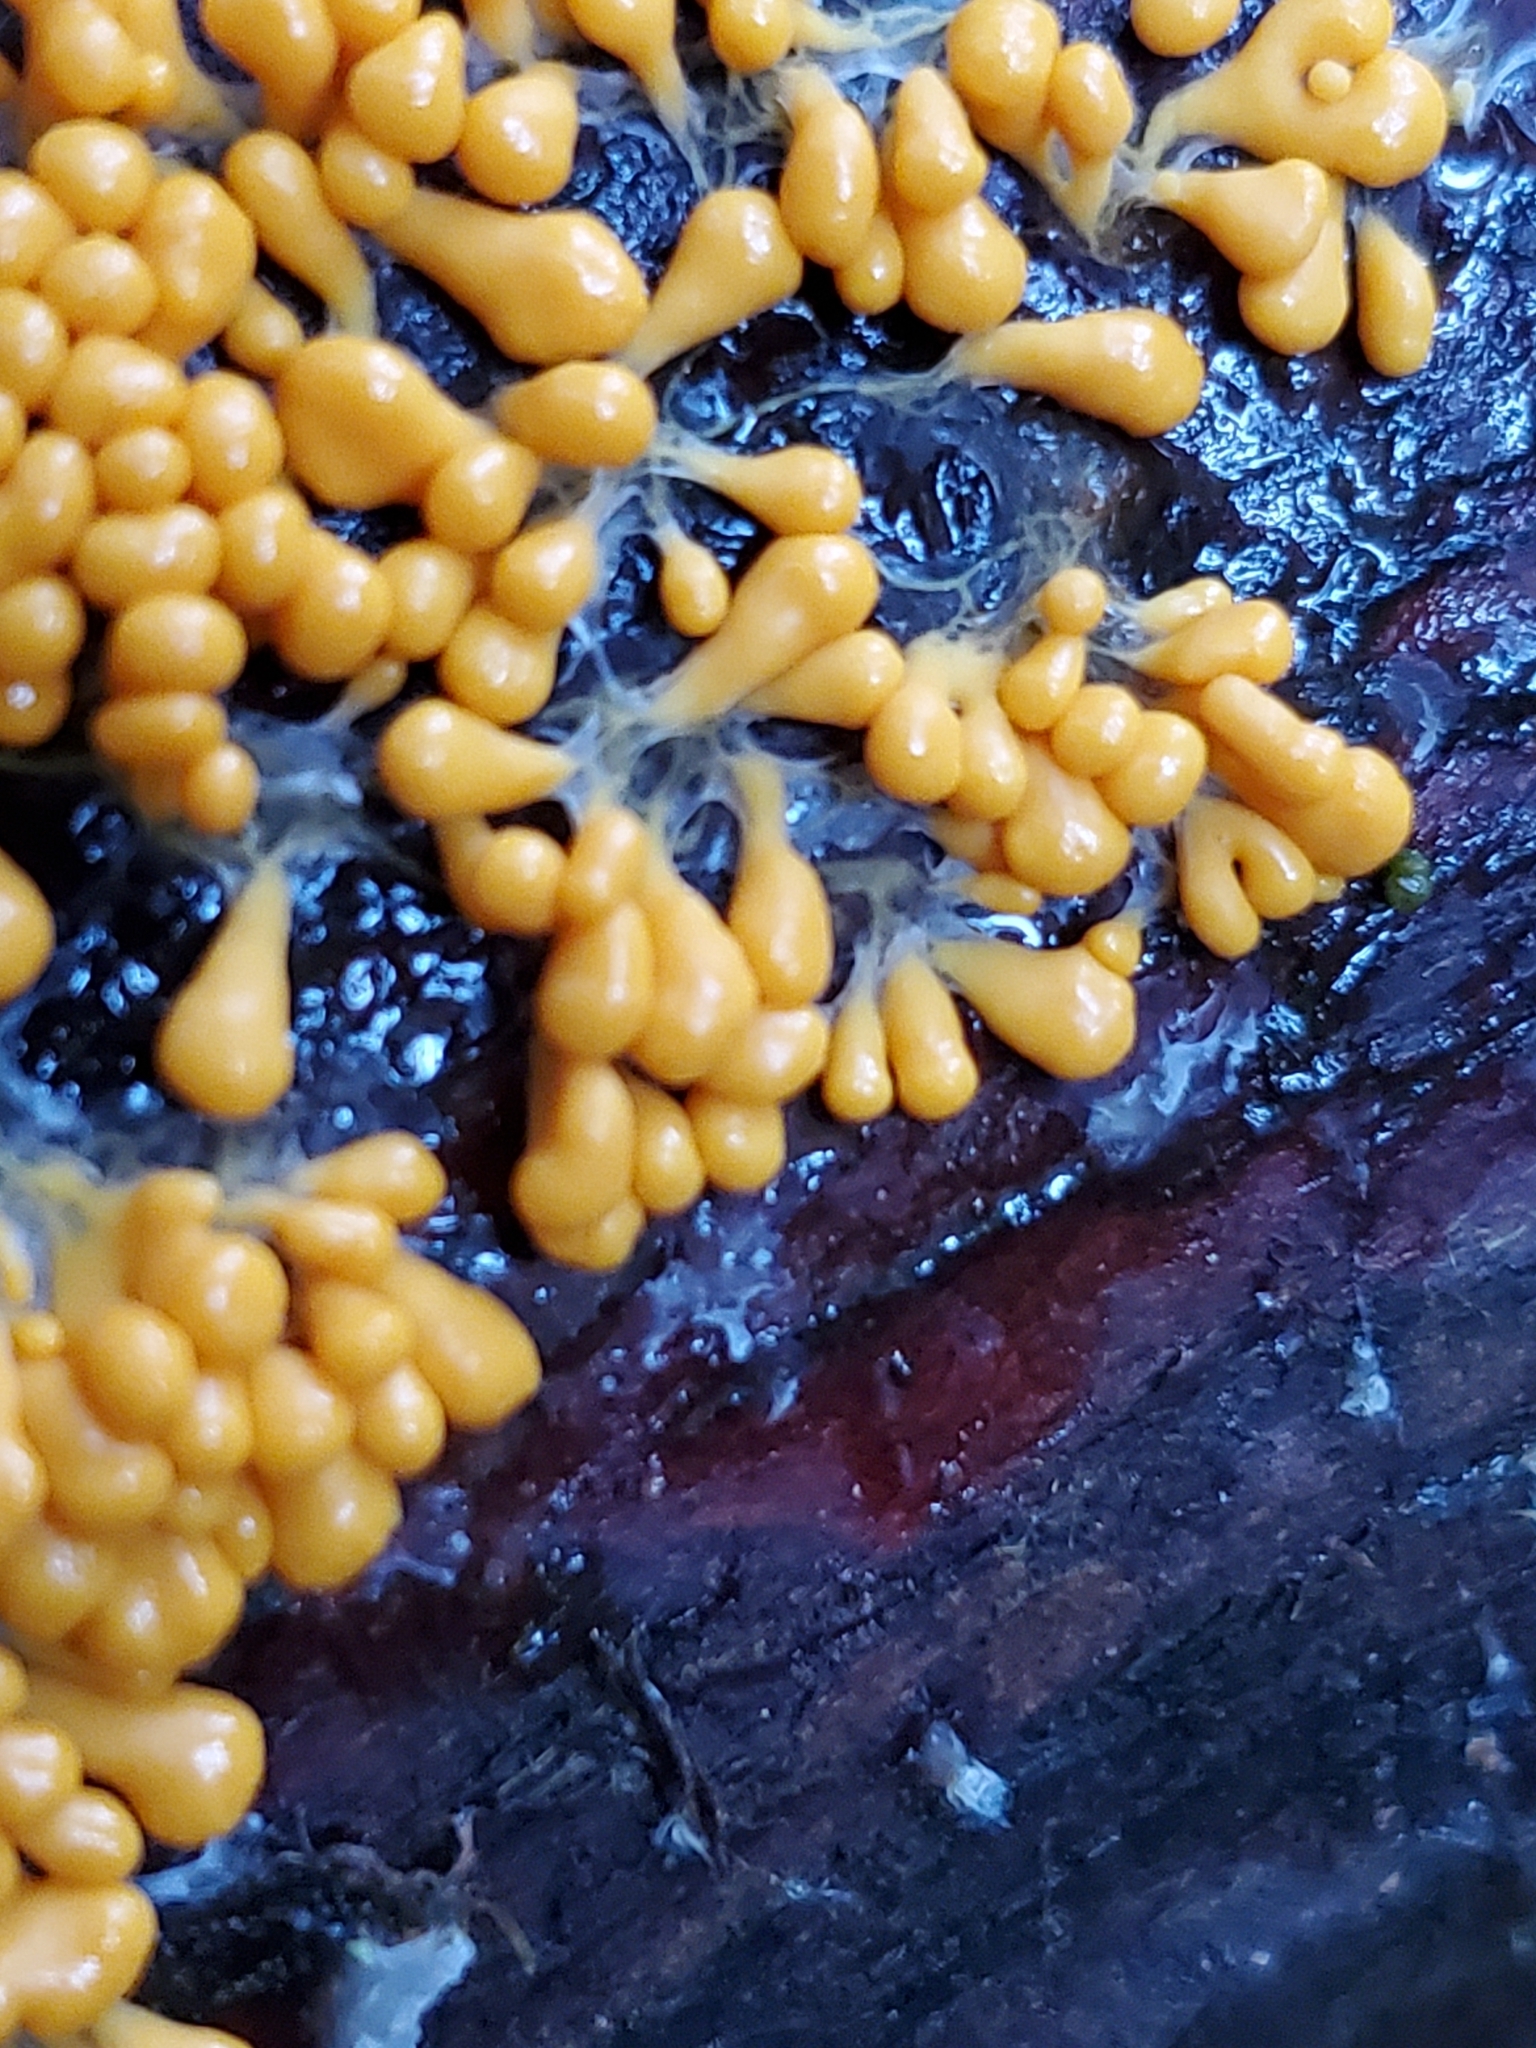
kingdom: Protozoa
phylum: Mycetozoa
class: Myxomycetes
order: Physarales
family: Physaraceae
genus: Leocarpus
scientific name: Leocarpus fragilis
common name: Insect-egg slime
